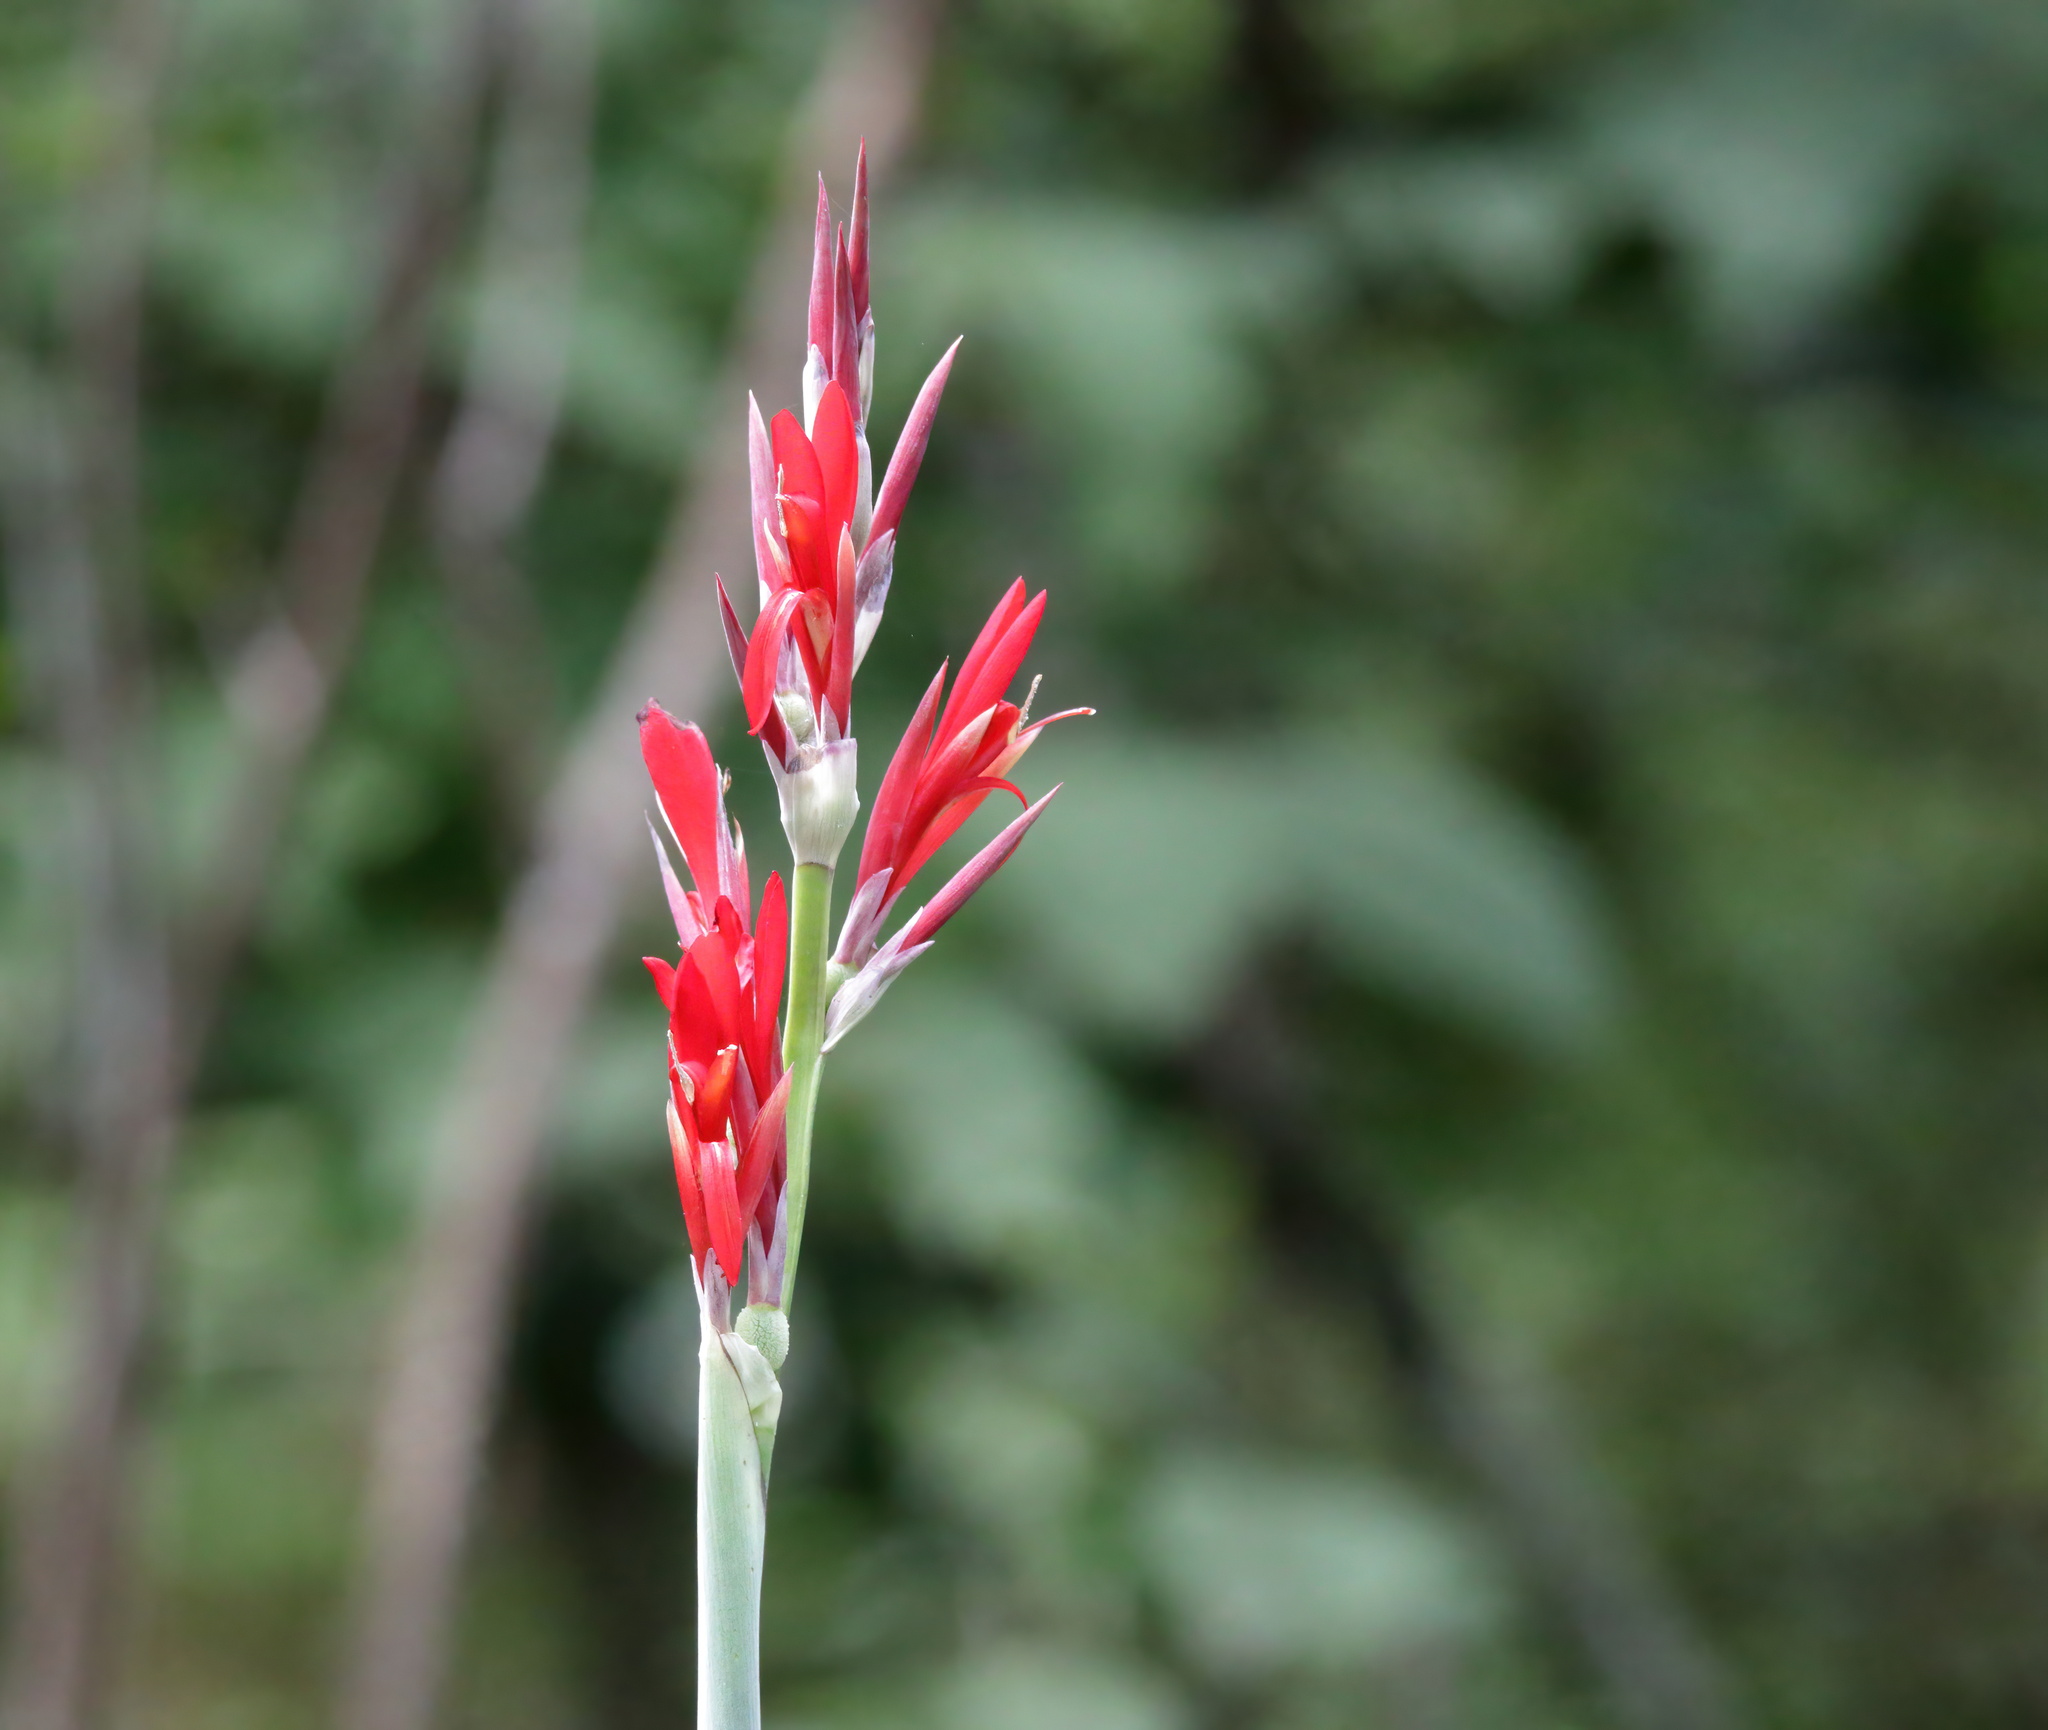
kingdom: Plantae
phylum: Tracheophyta
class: Liliopsida
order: Zingiberales
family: Cannaceae
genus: Canna
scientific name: Canna indica
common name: Indian shot
